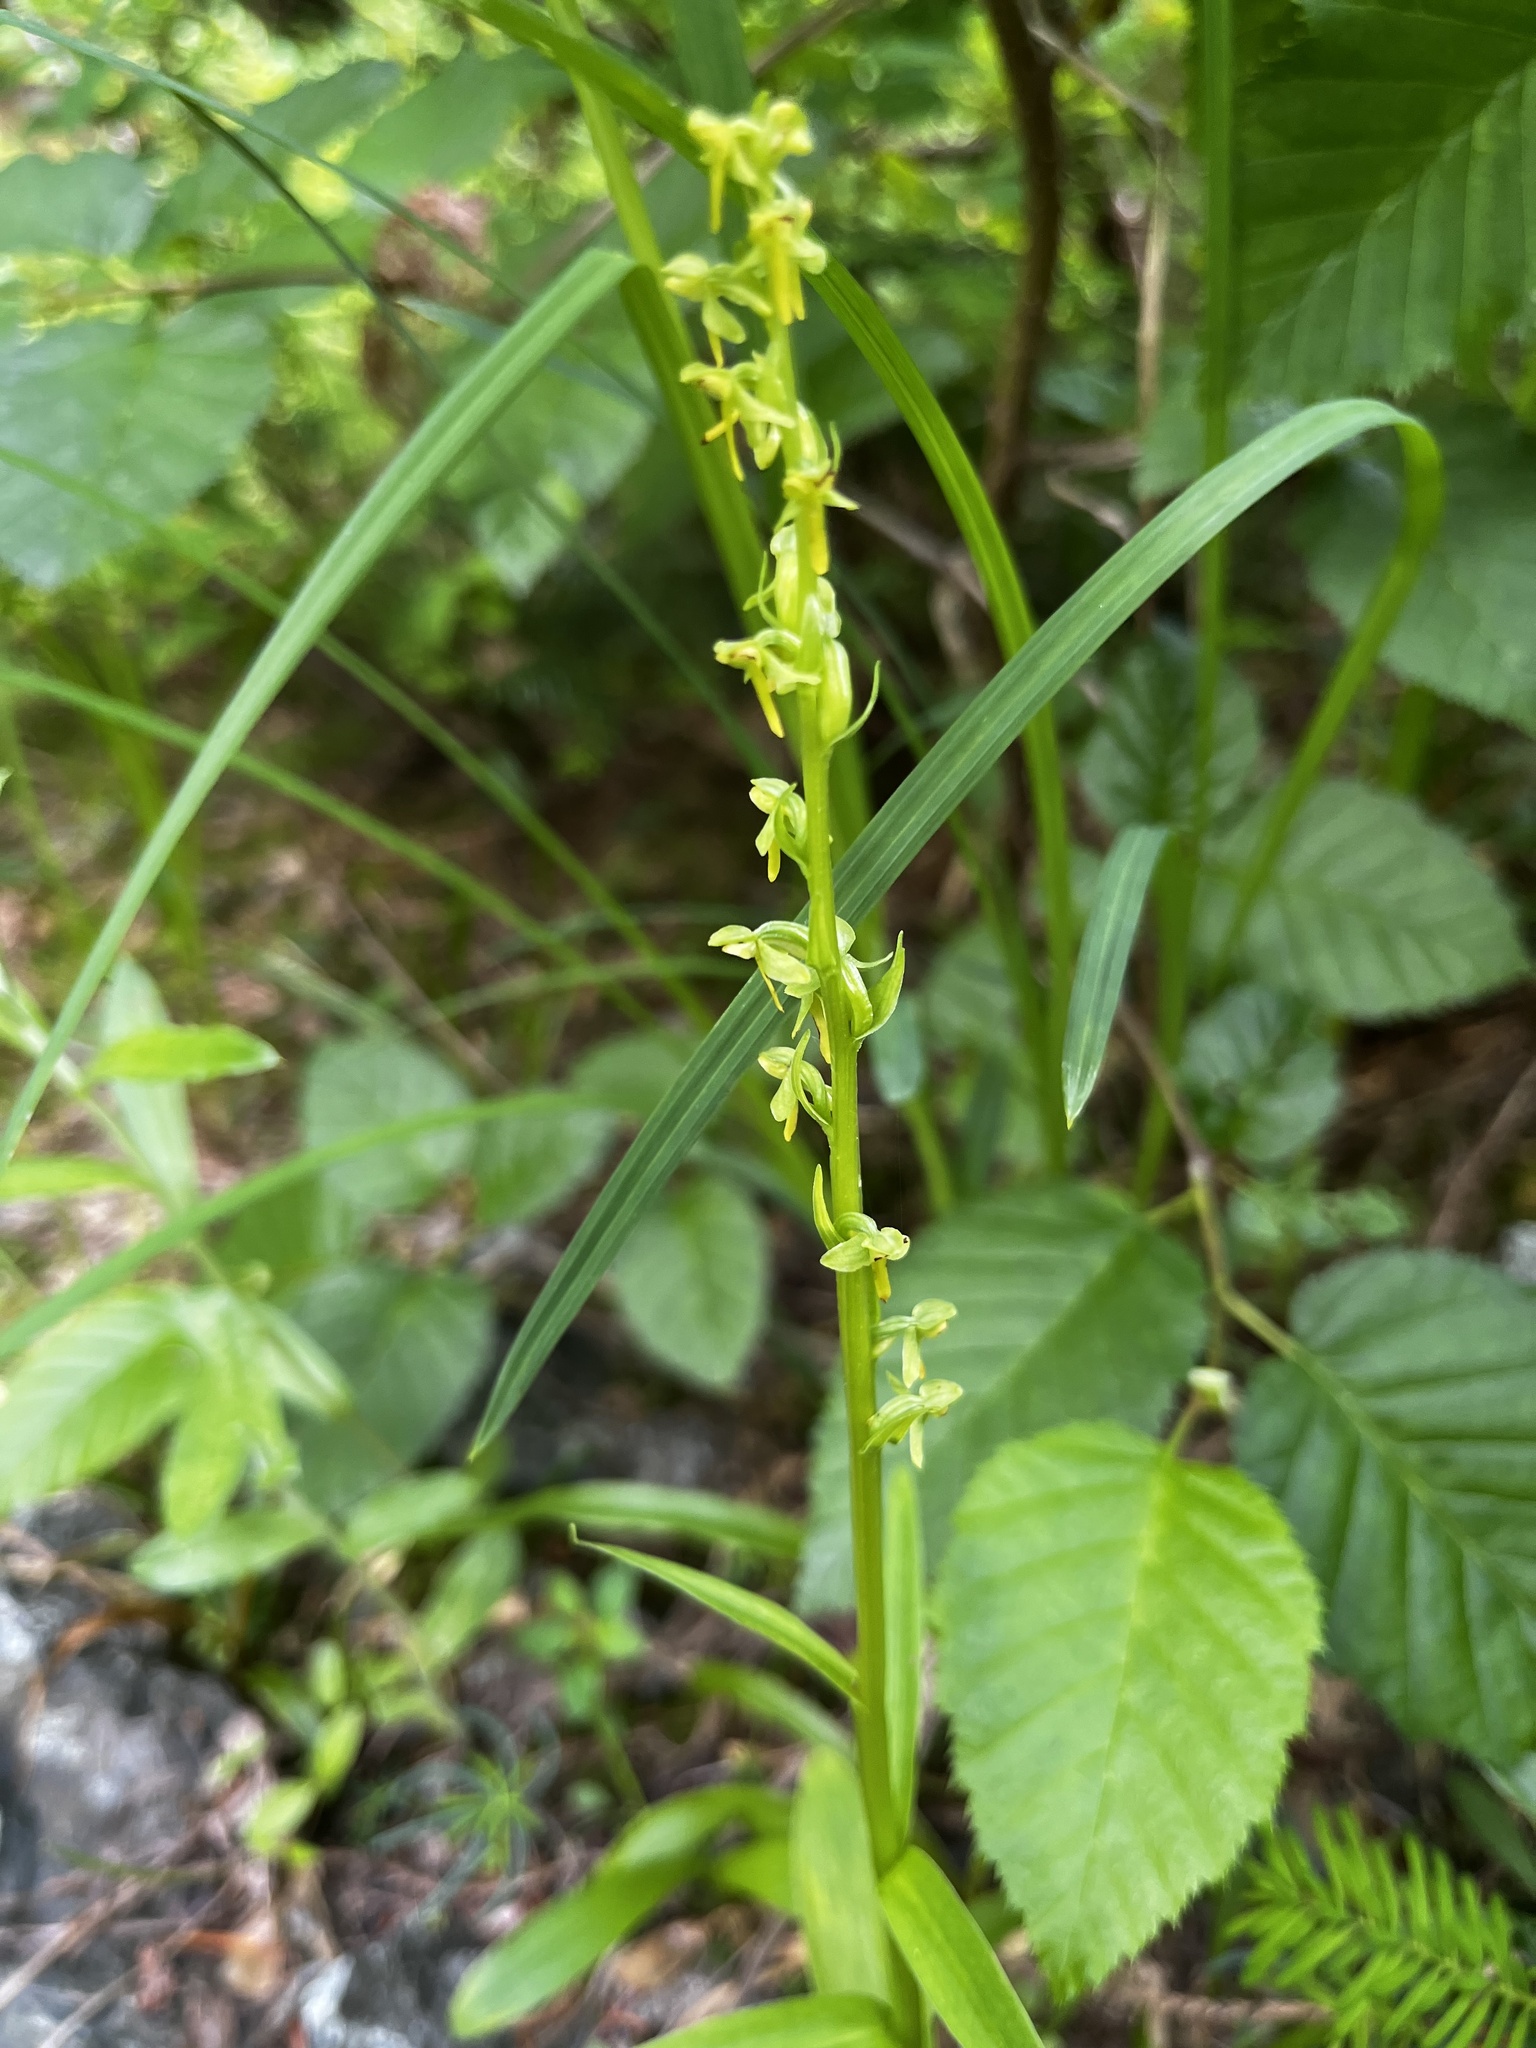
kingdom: Plantae
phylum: Tracheophyta
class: Liliopsida
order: Asparagales
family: Orchidaceae
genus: Platanthera
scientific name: Platanthera stricta
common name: Slender bog orchid
